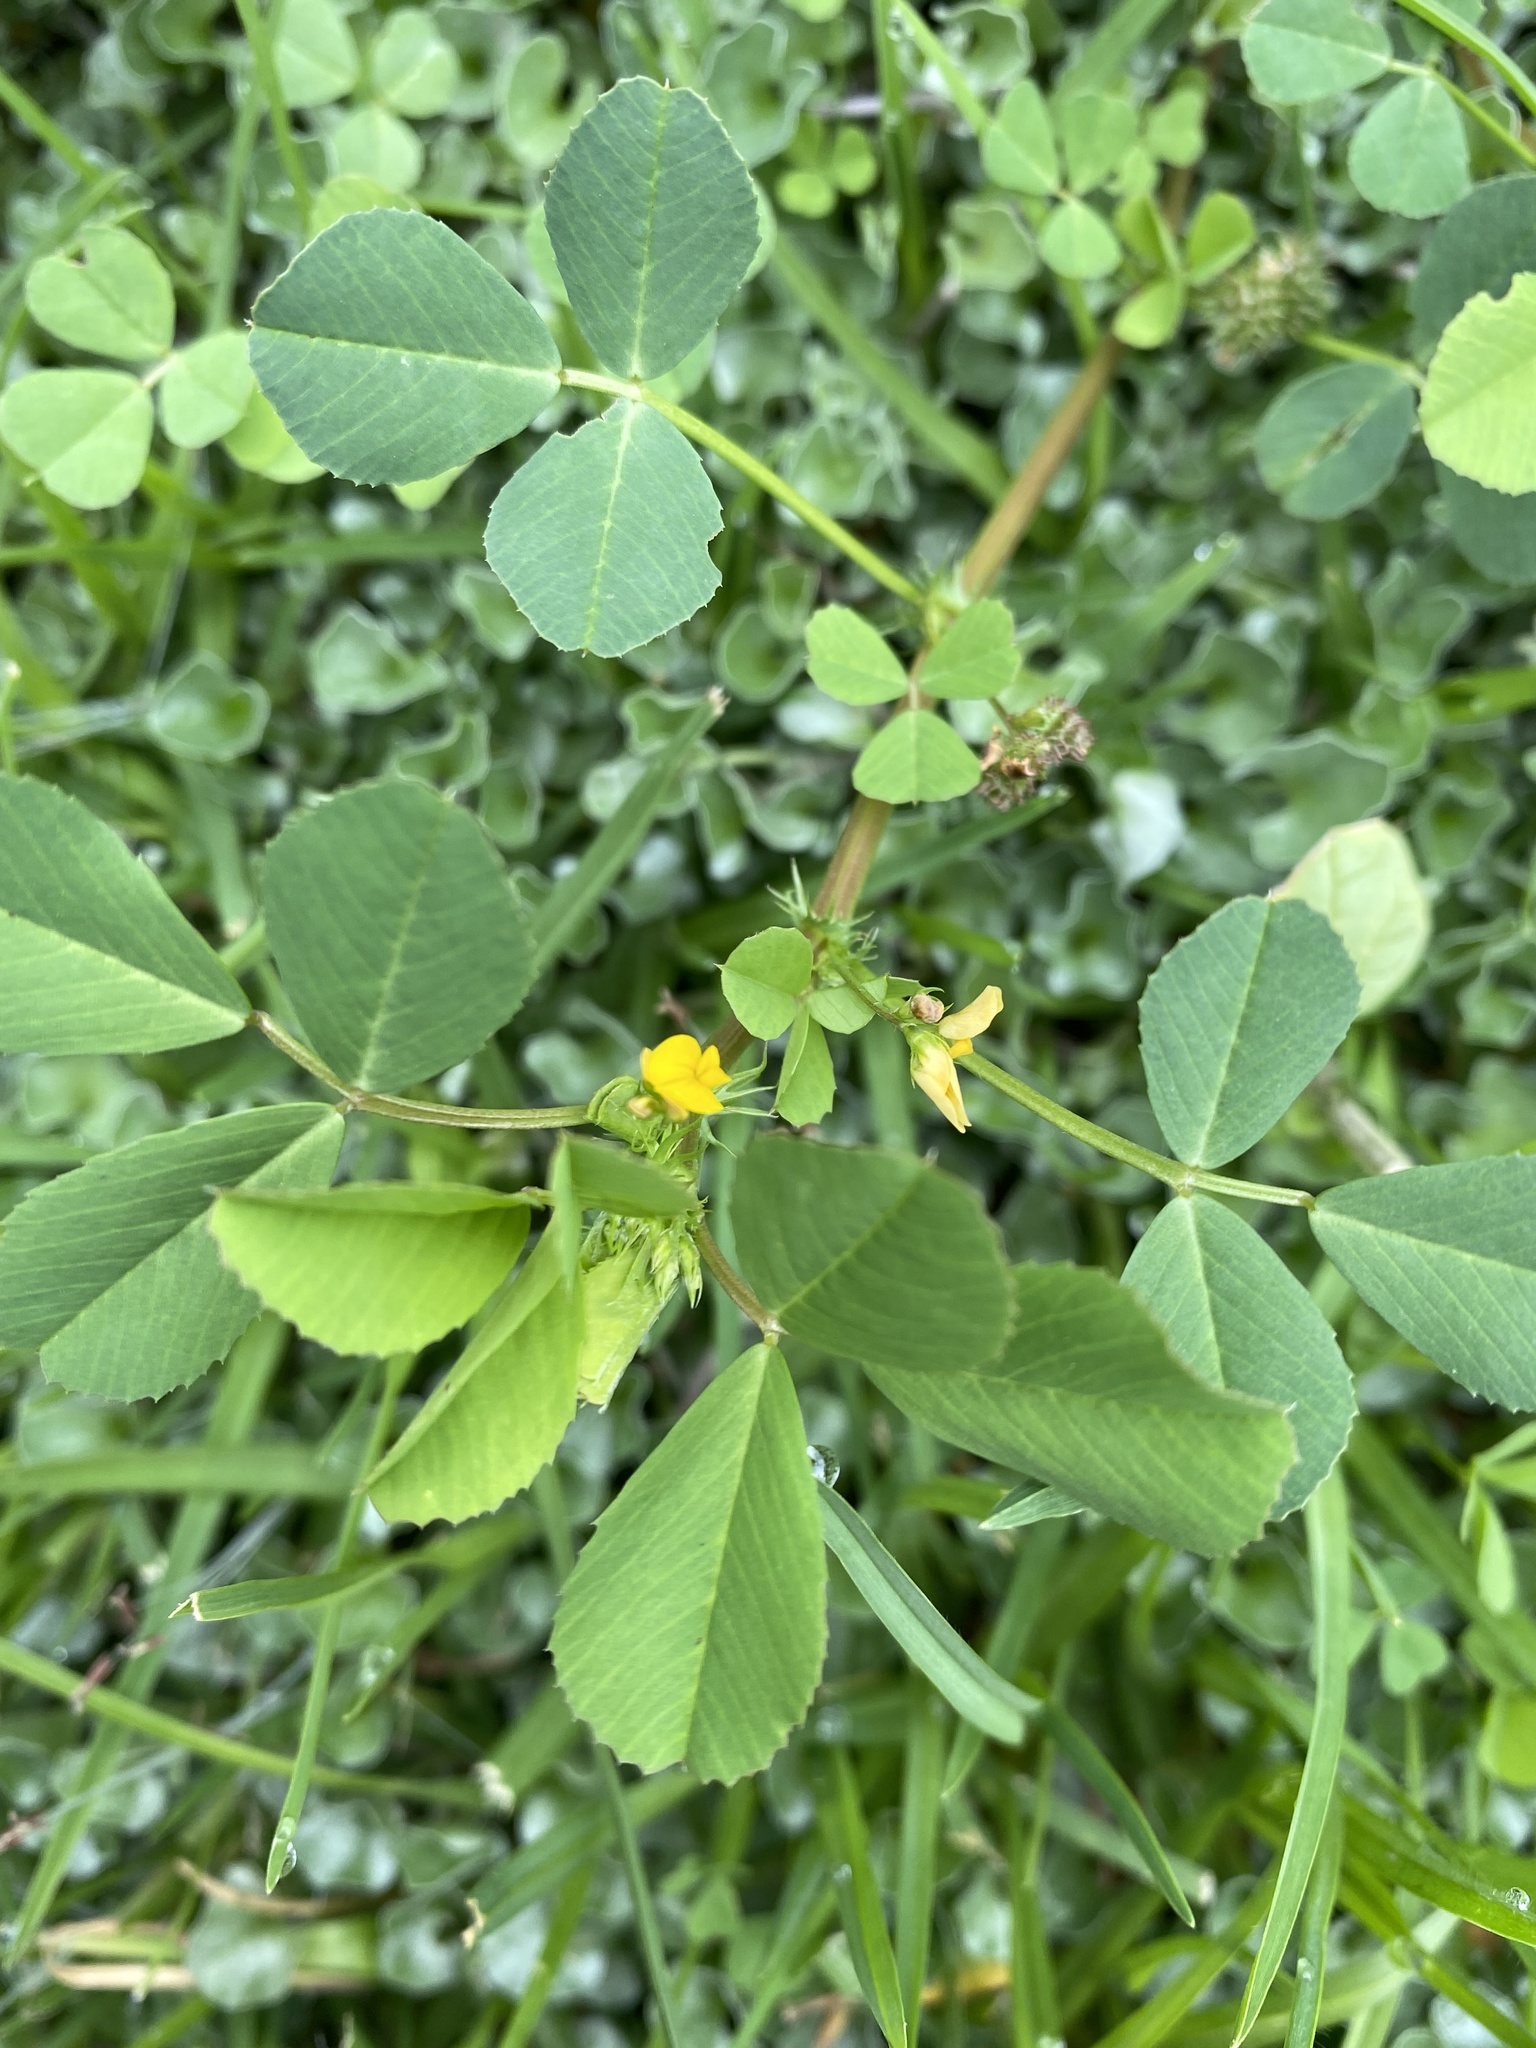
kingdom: Plantae
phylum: Tracheophyta
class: Magnoliopsida
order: Fabales
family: Fabaceae
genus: Medicago
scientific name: Medicago polymorpha
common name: Burclover
